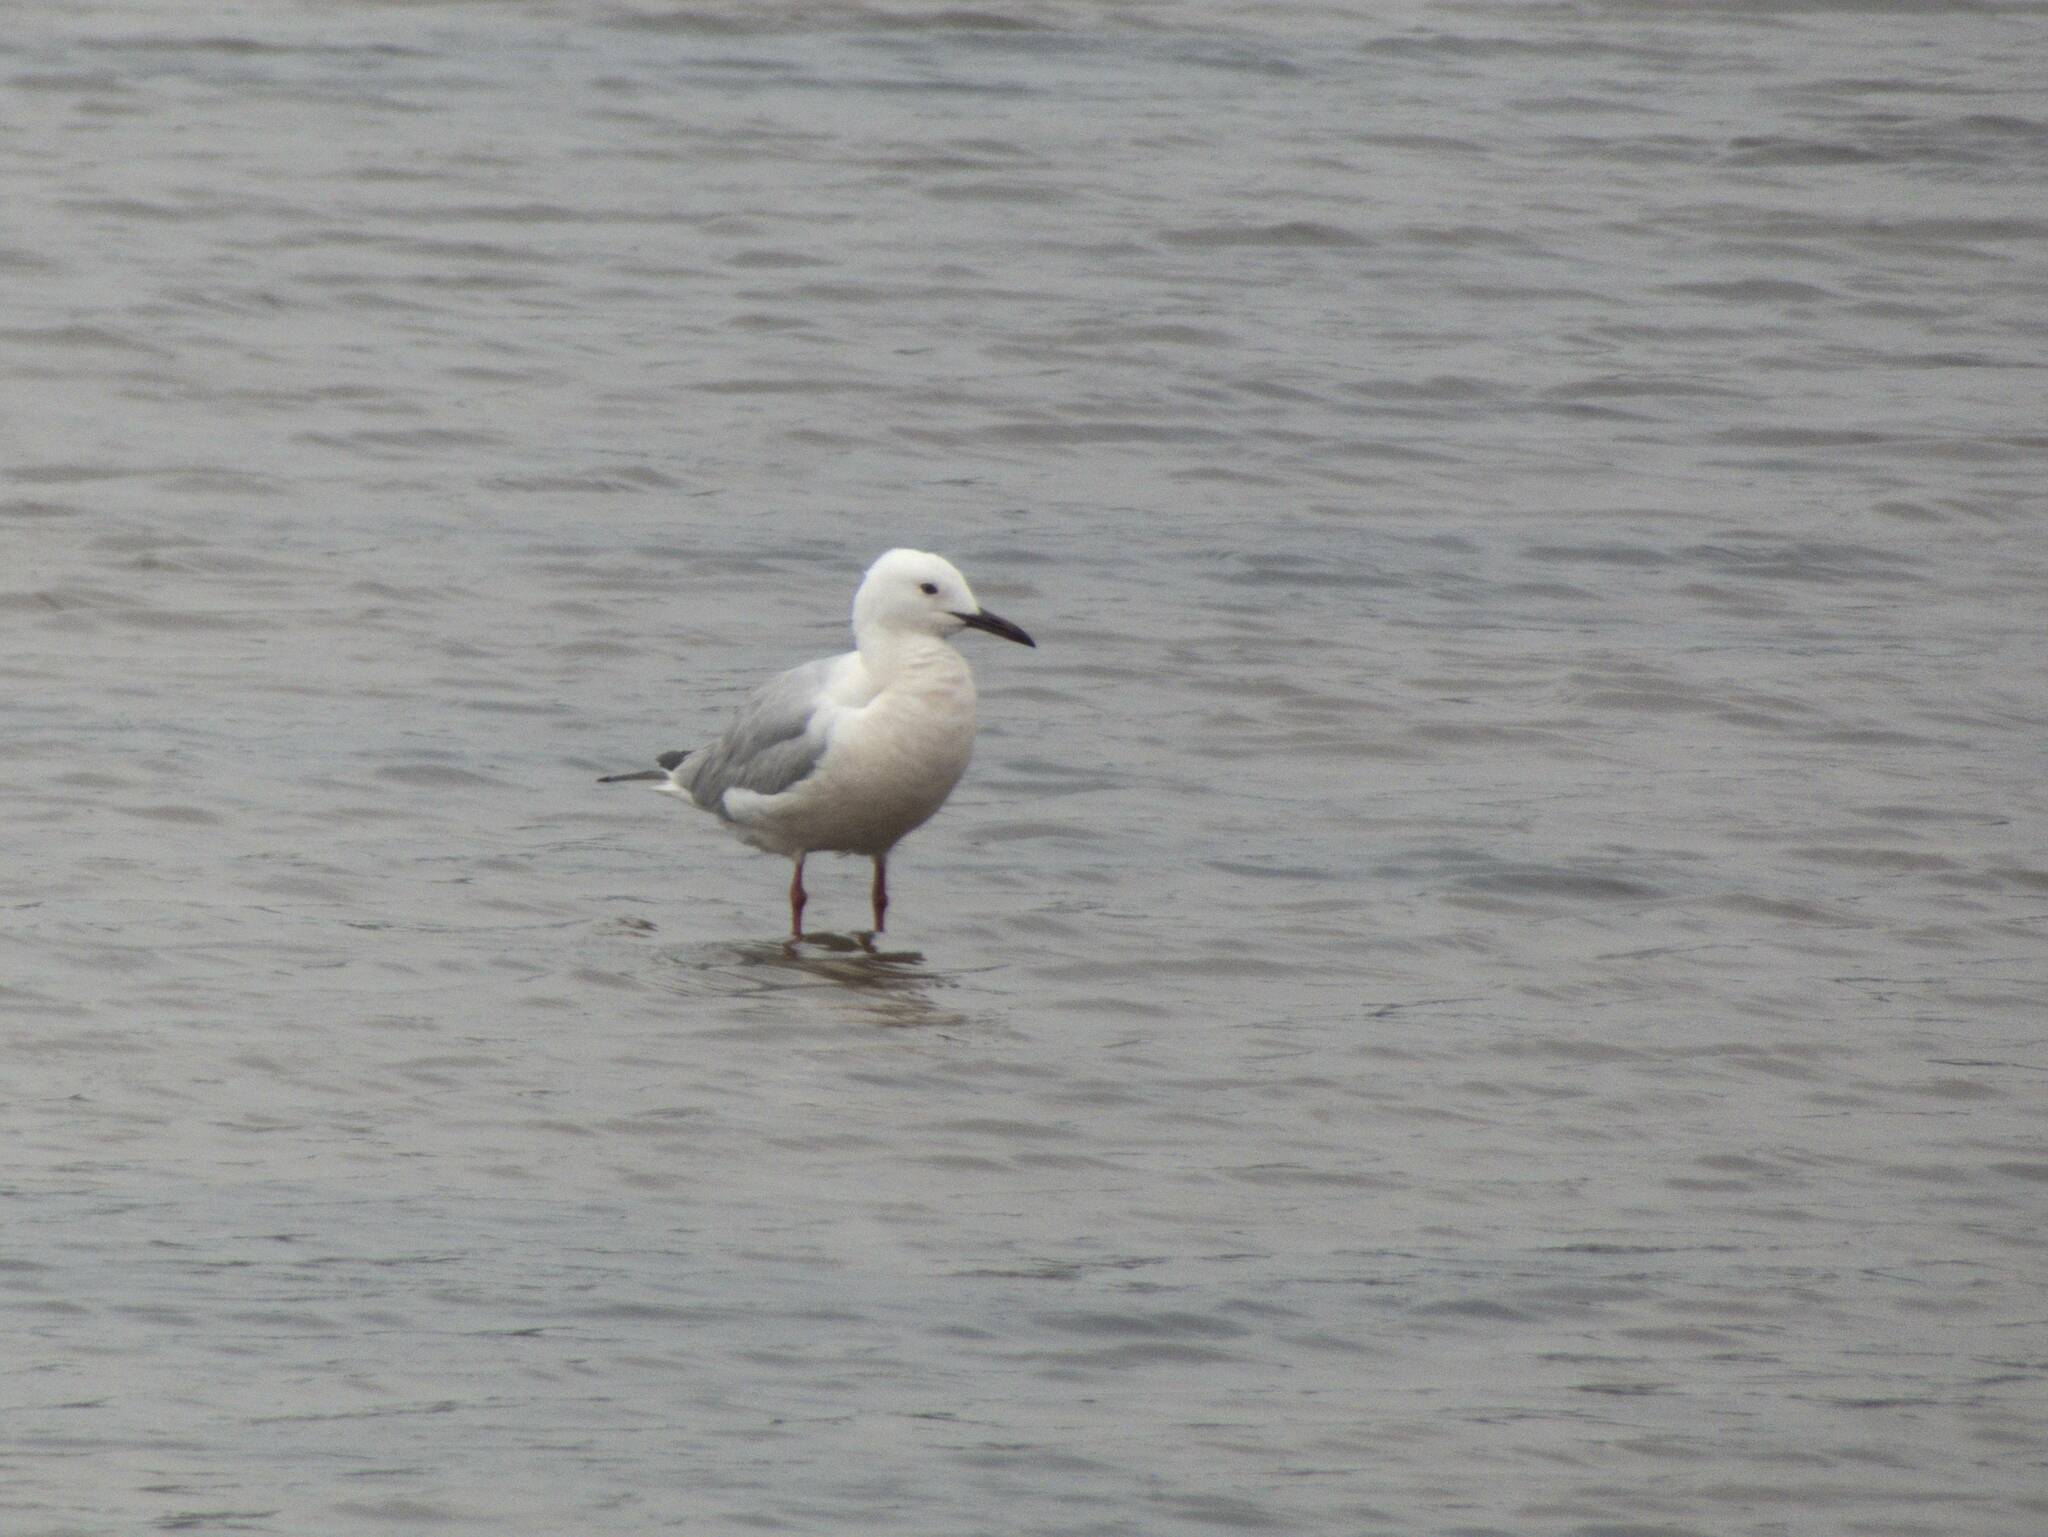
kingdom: Animalia
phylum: Chordata
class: Aves
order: Charadriiformes
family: Laridae
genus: Chroicocephalus
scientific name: Chroicocephalus genei
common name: Slender-billed gull
